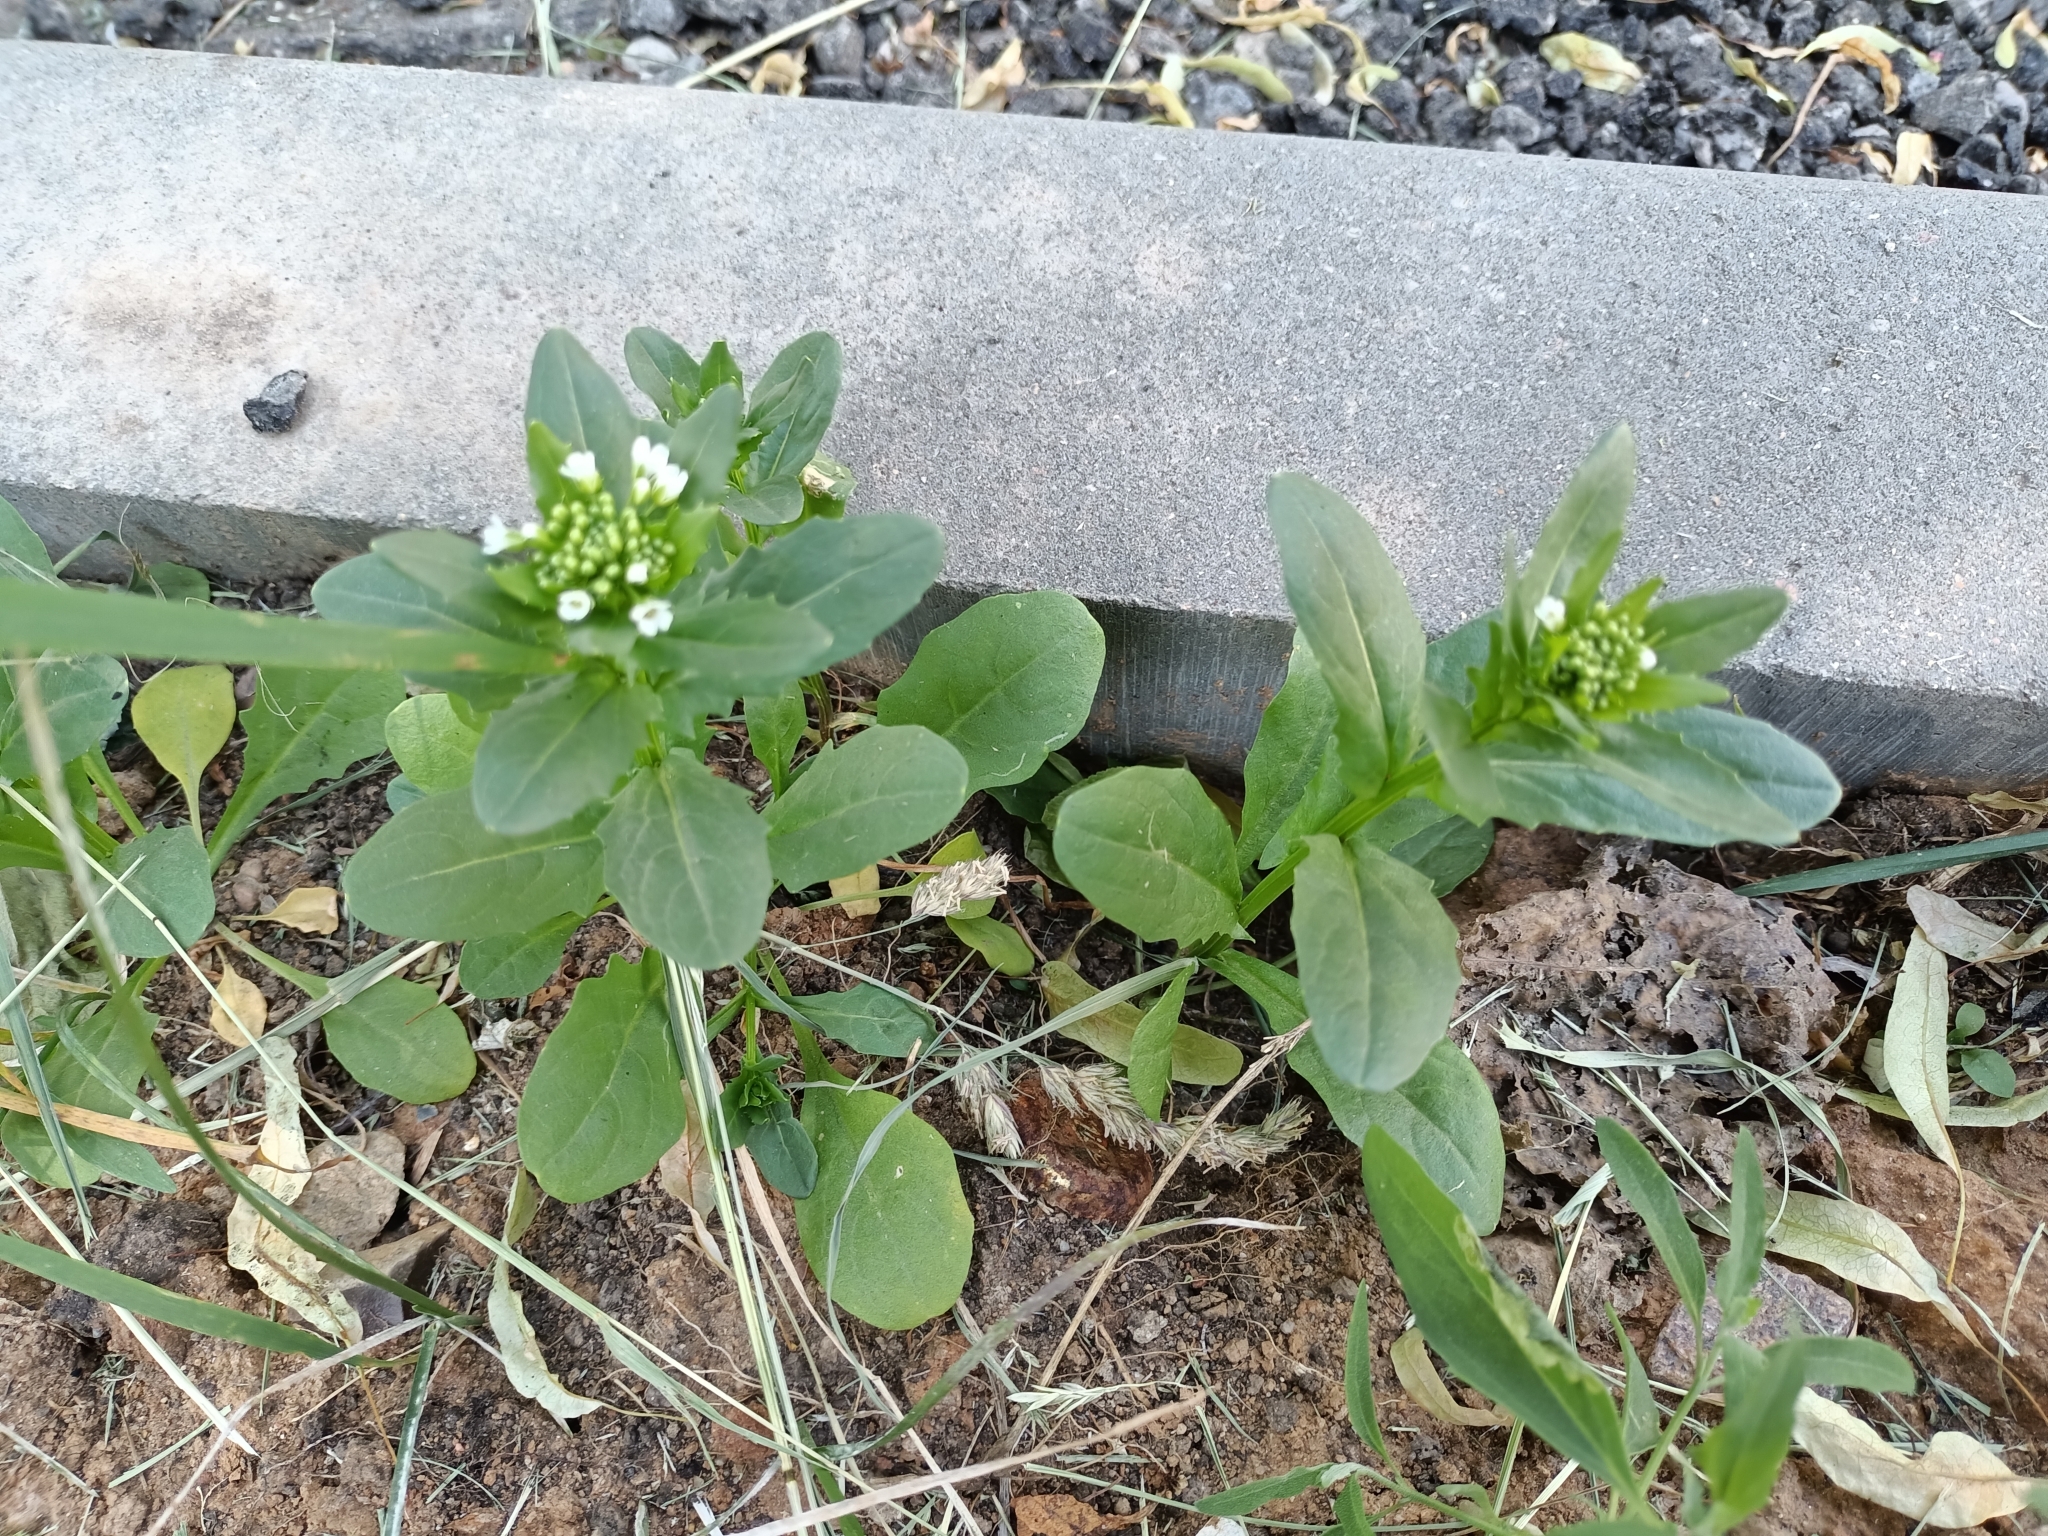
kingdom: Plantae
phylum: Tracheophyta
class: Magnoliopsida
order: Brassicales
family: Brassicaceae
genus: Thlaspi
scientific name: Thlaspi arvense
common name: Field pennycress
